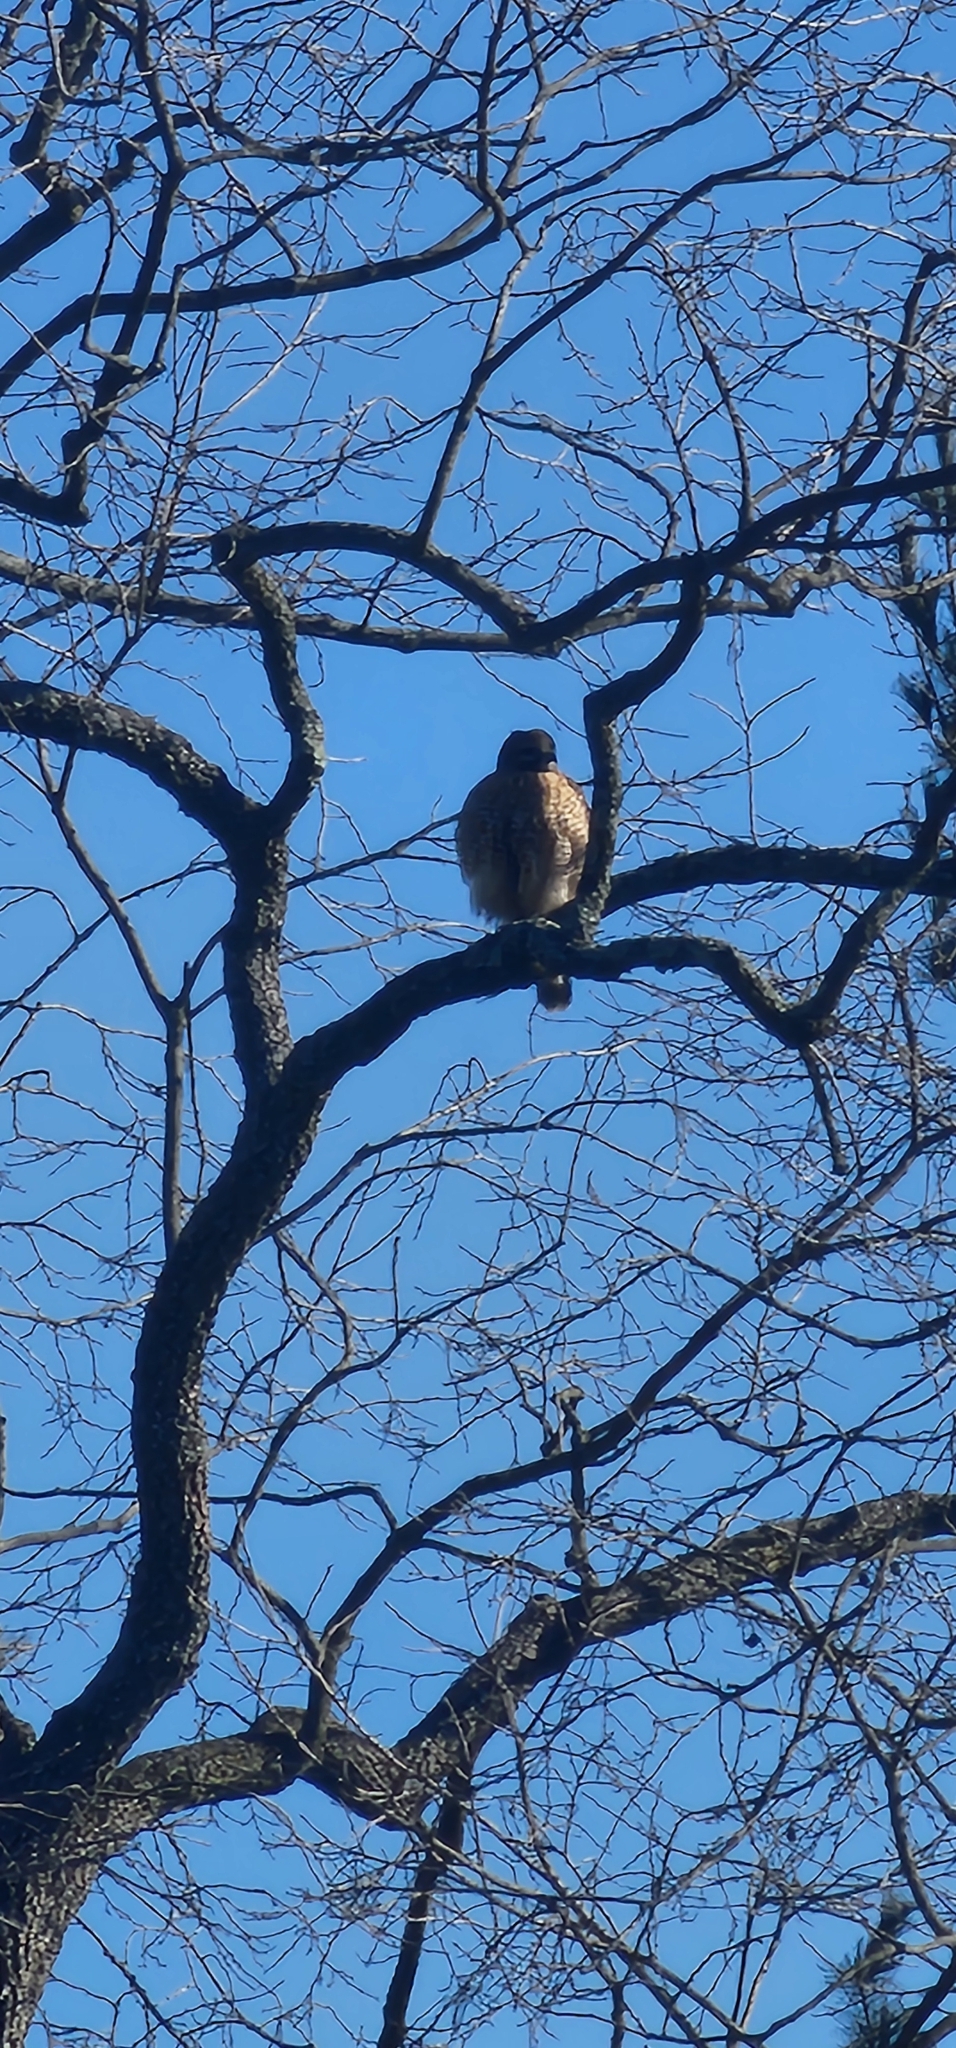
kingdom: Animalia
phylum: Chordata
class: Aves
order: Accipitriformes
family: Accipitridae
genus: Buteo
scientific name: Buteo lineatus
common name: Red-shouldered hawk
